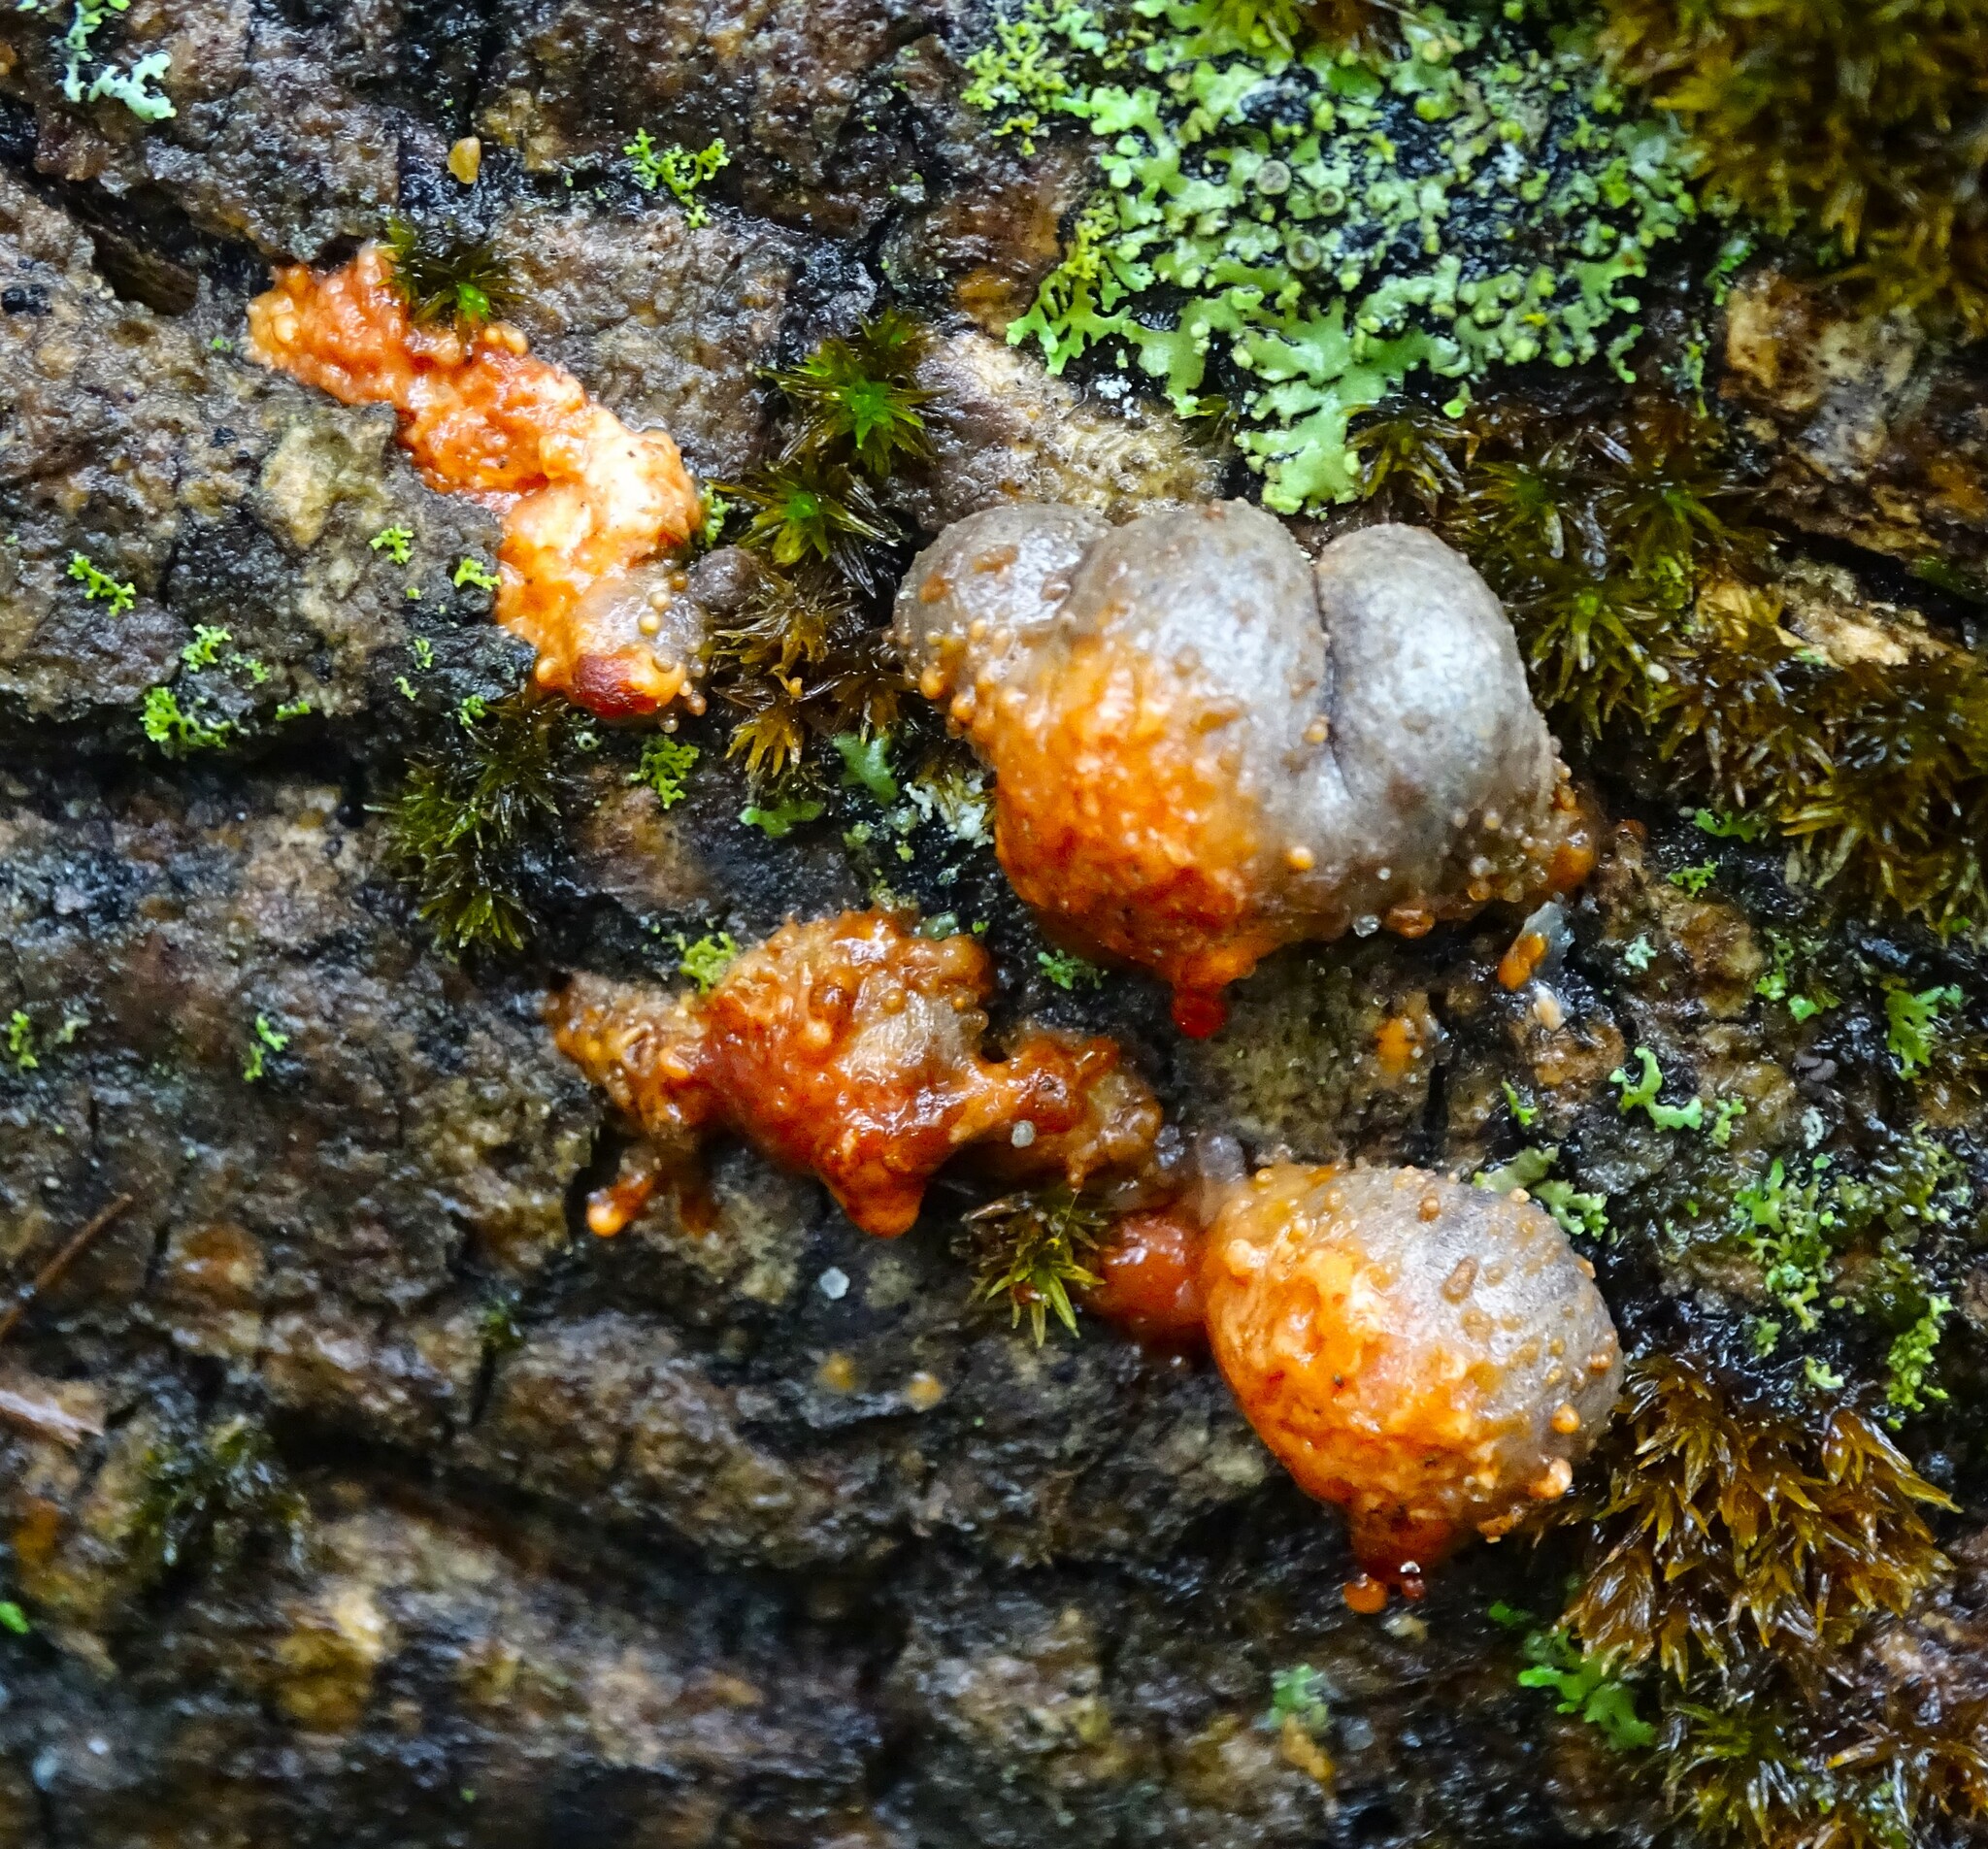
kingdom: Protozoa
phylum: Mycetozoa
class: Myxomycetes
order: Cribrariales
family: Tubiferaceae
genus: Lycogala
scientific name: Lycogala epidendrum
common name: Wolf's milk
